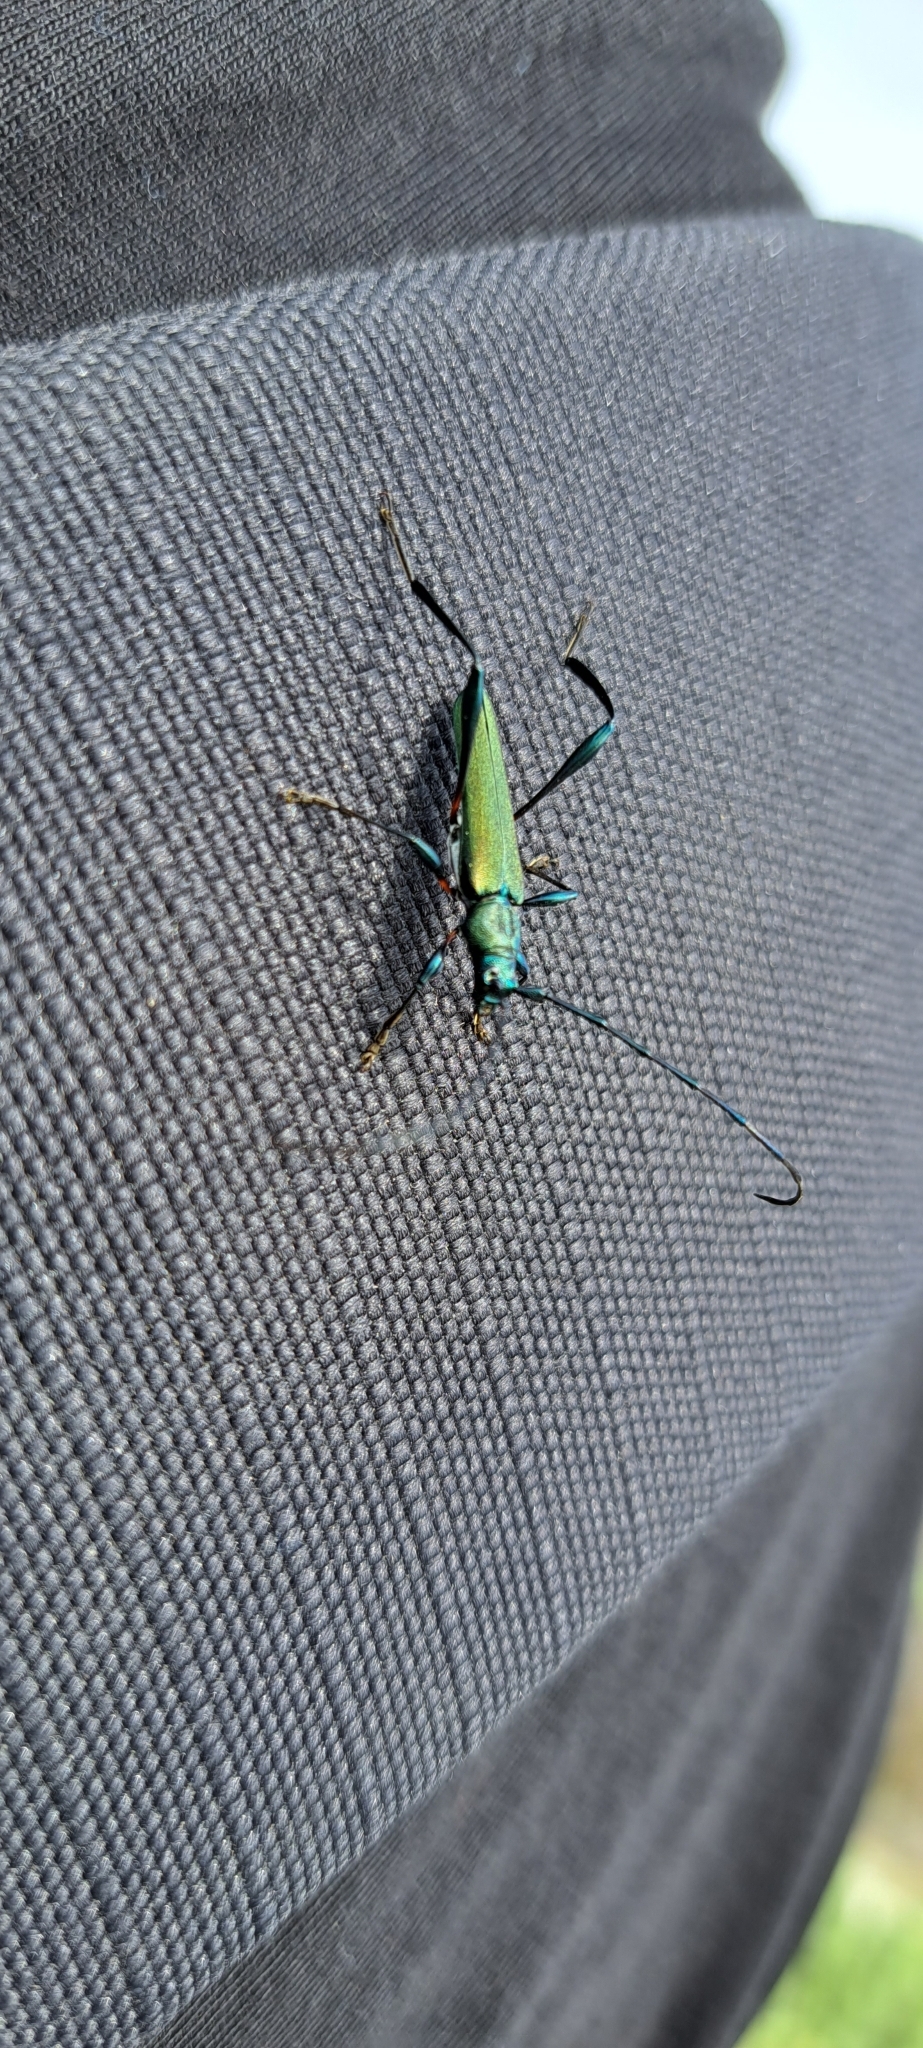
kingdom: Animalia
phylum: Arthropoda
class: Insecta
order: Coleoptera
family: Cerambycidae
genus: Litopus
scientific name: Litopus latipes
